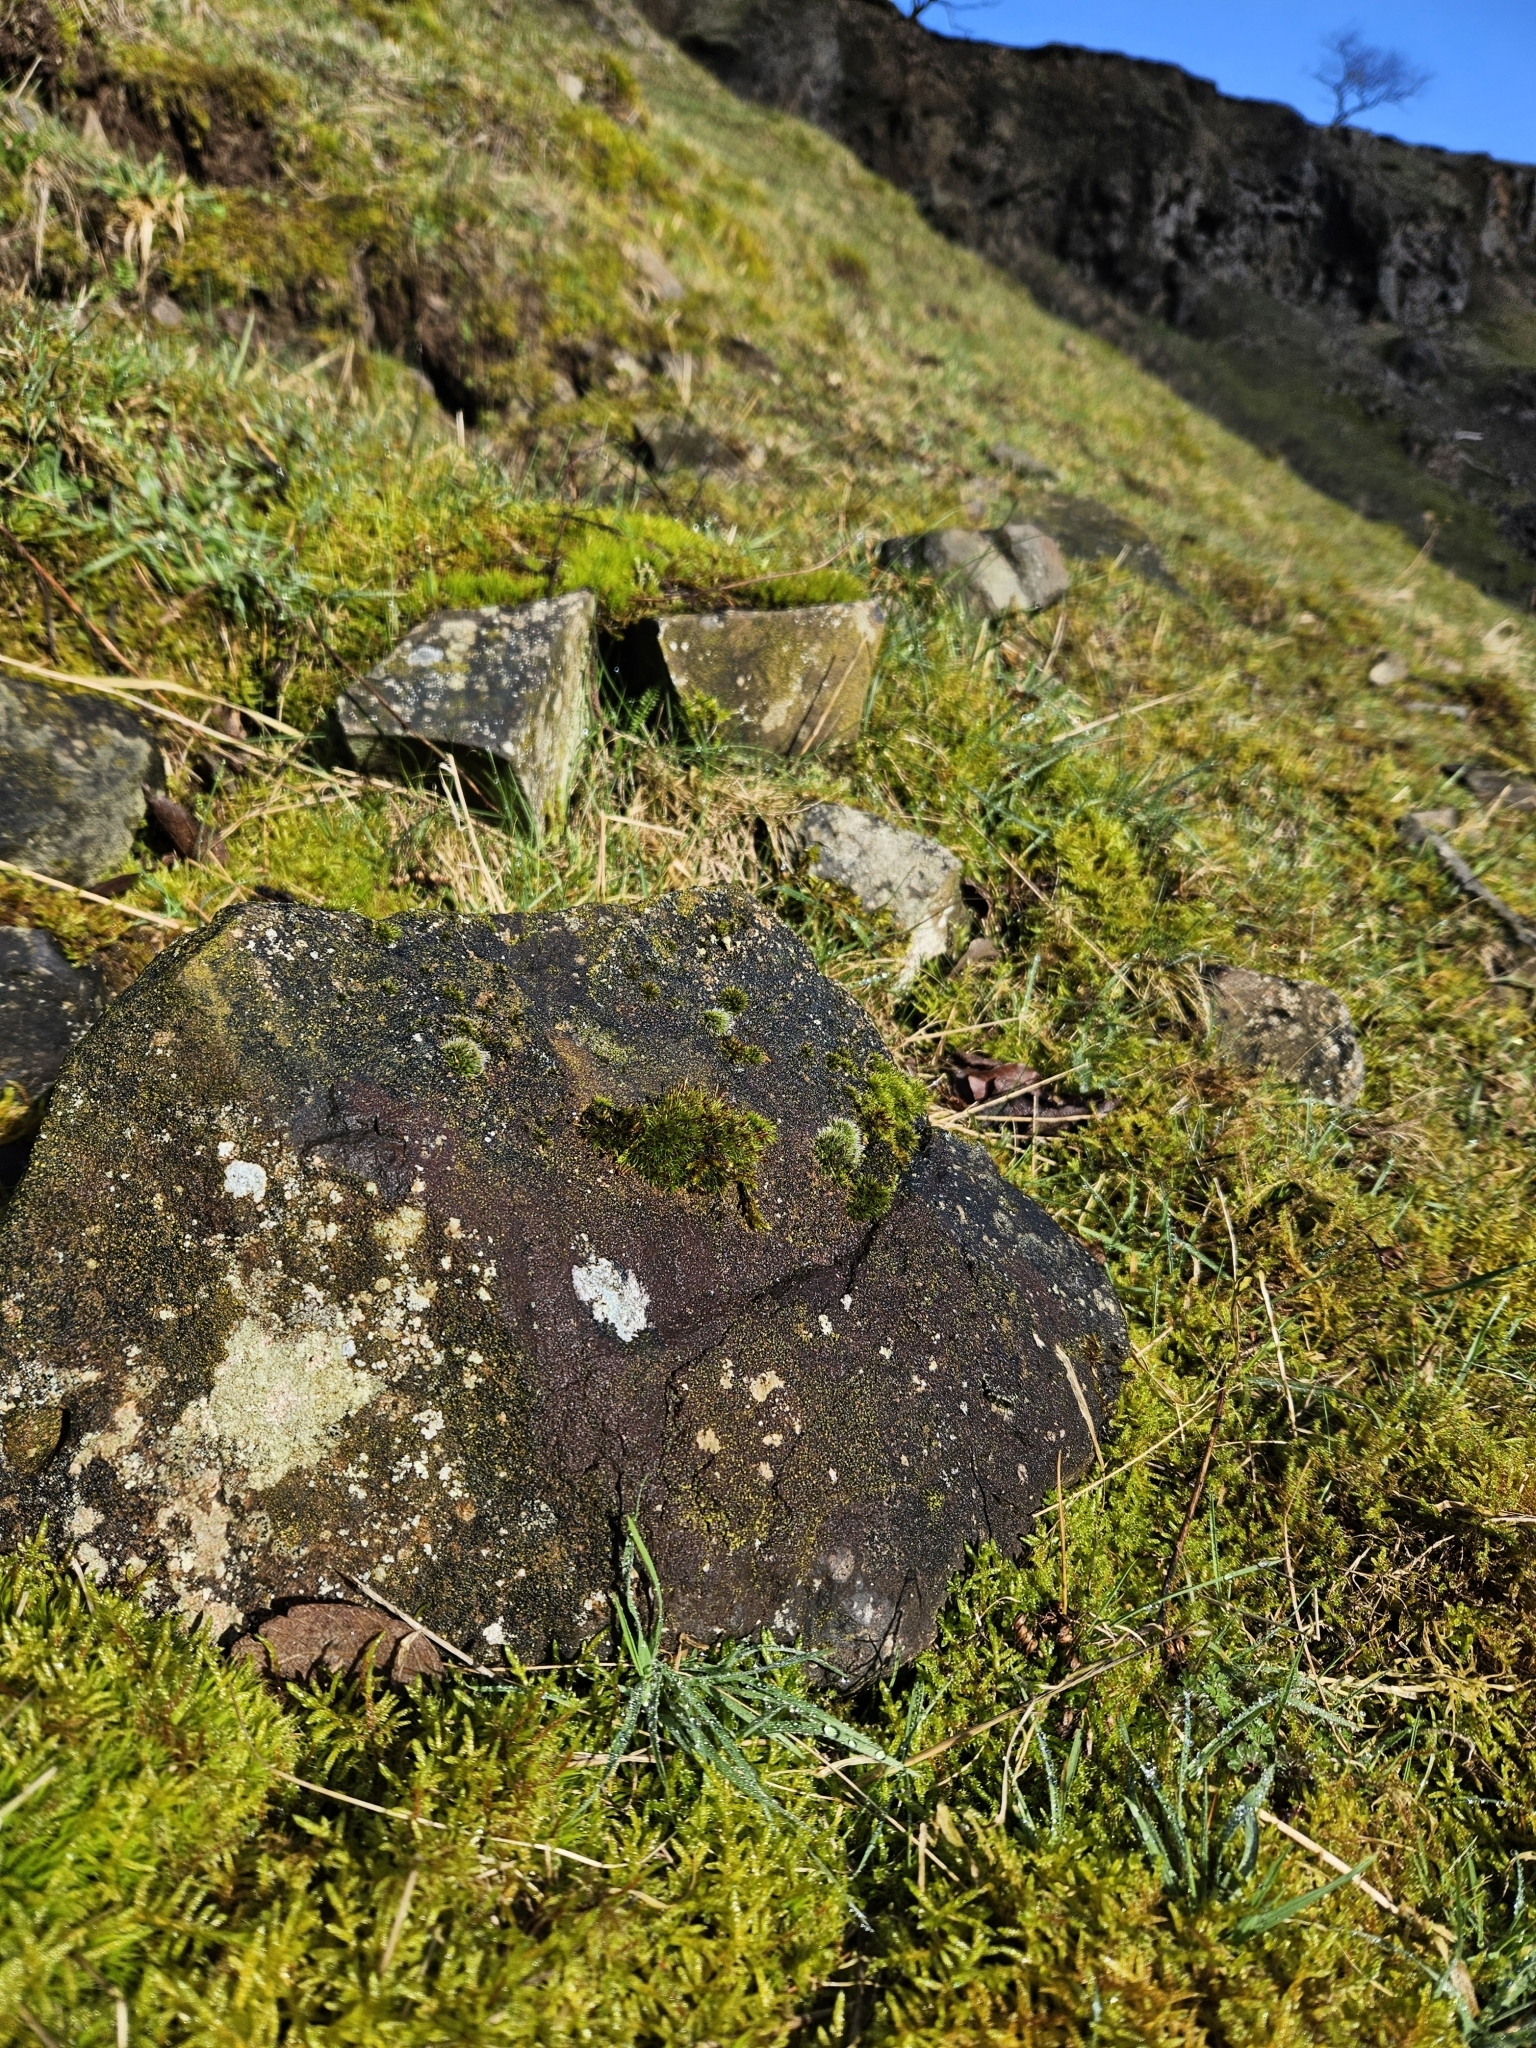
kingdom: Plantae
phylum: Bryophyta
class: Bryopsida
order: Grimmiales
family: Ptychomitriaceae
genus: Ptychomitrium
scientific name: Ptychomitrium polyphyllum
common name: Greater pincushion
